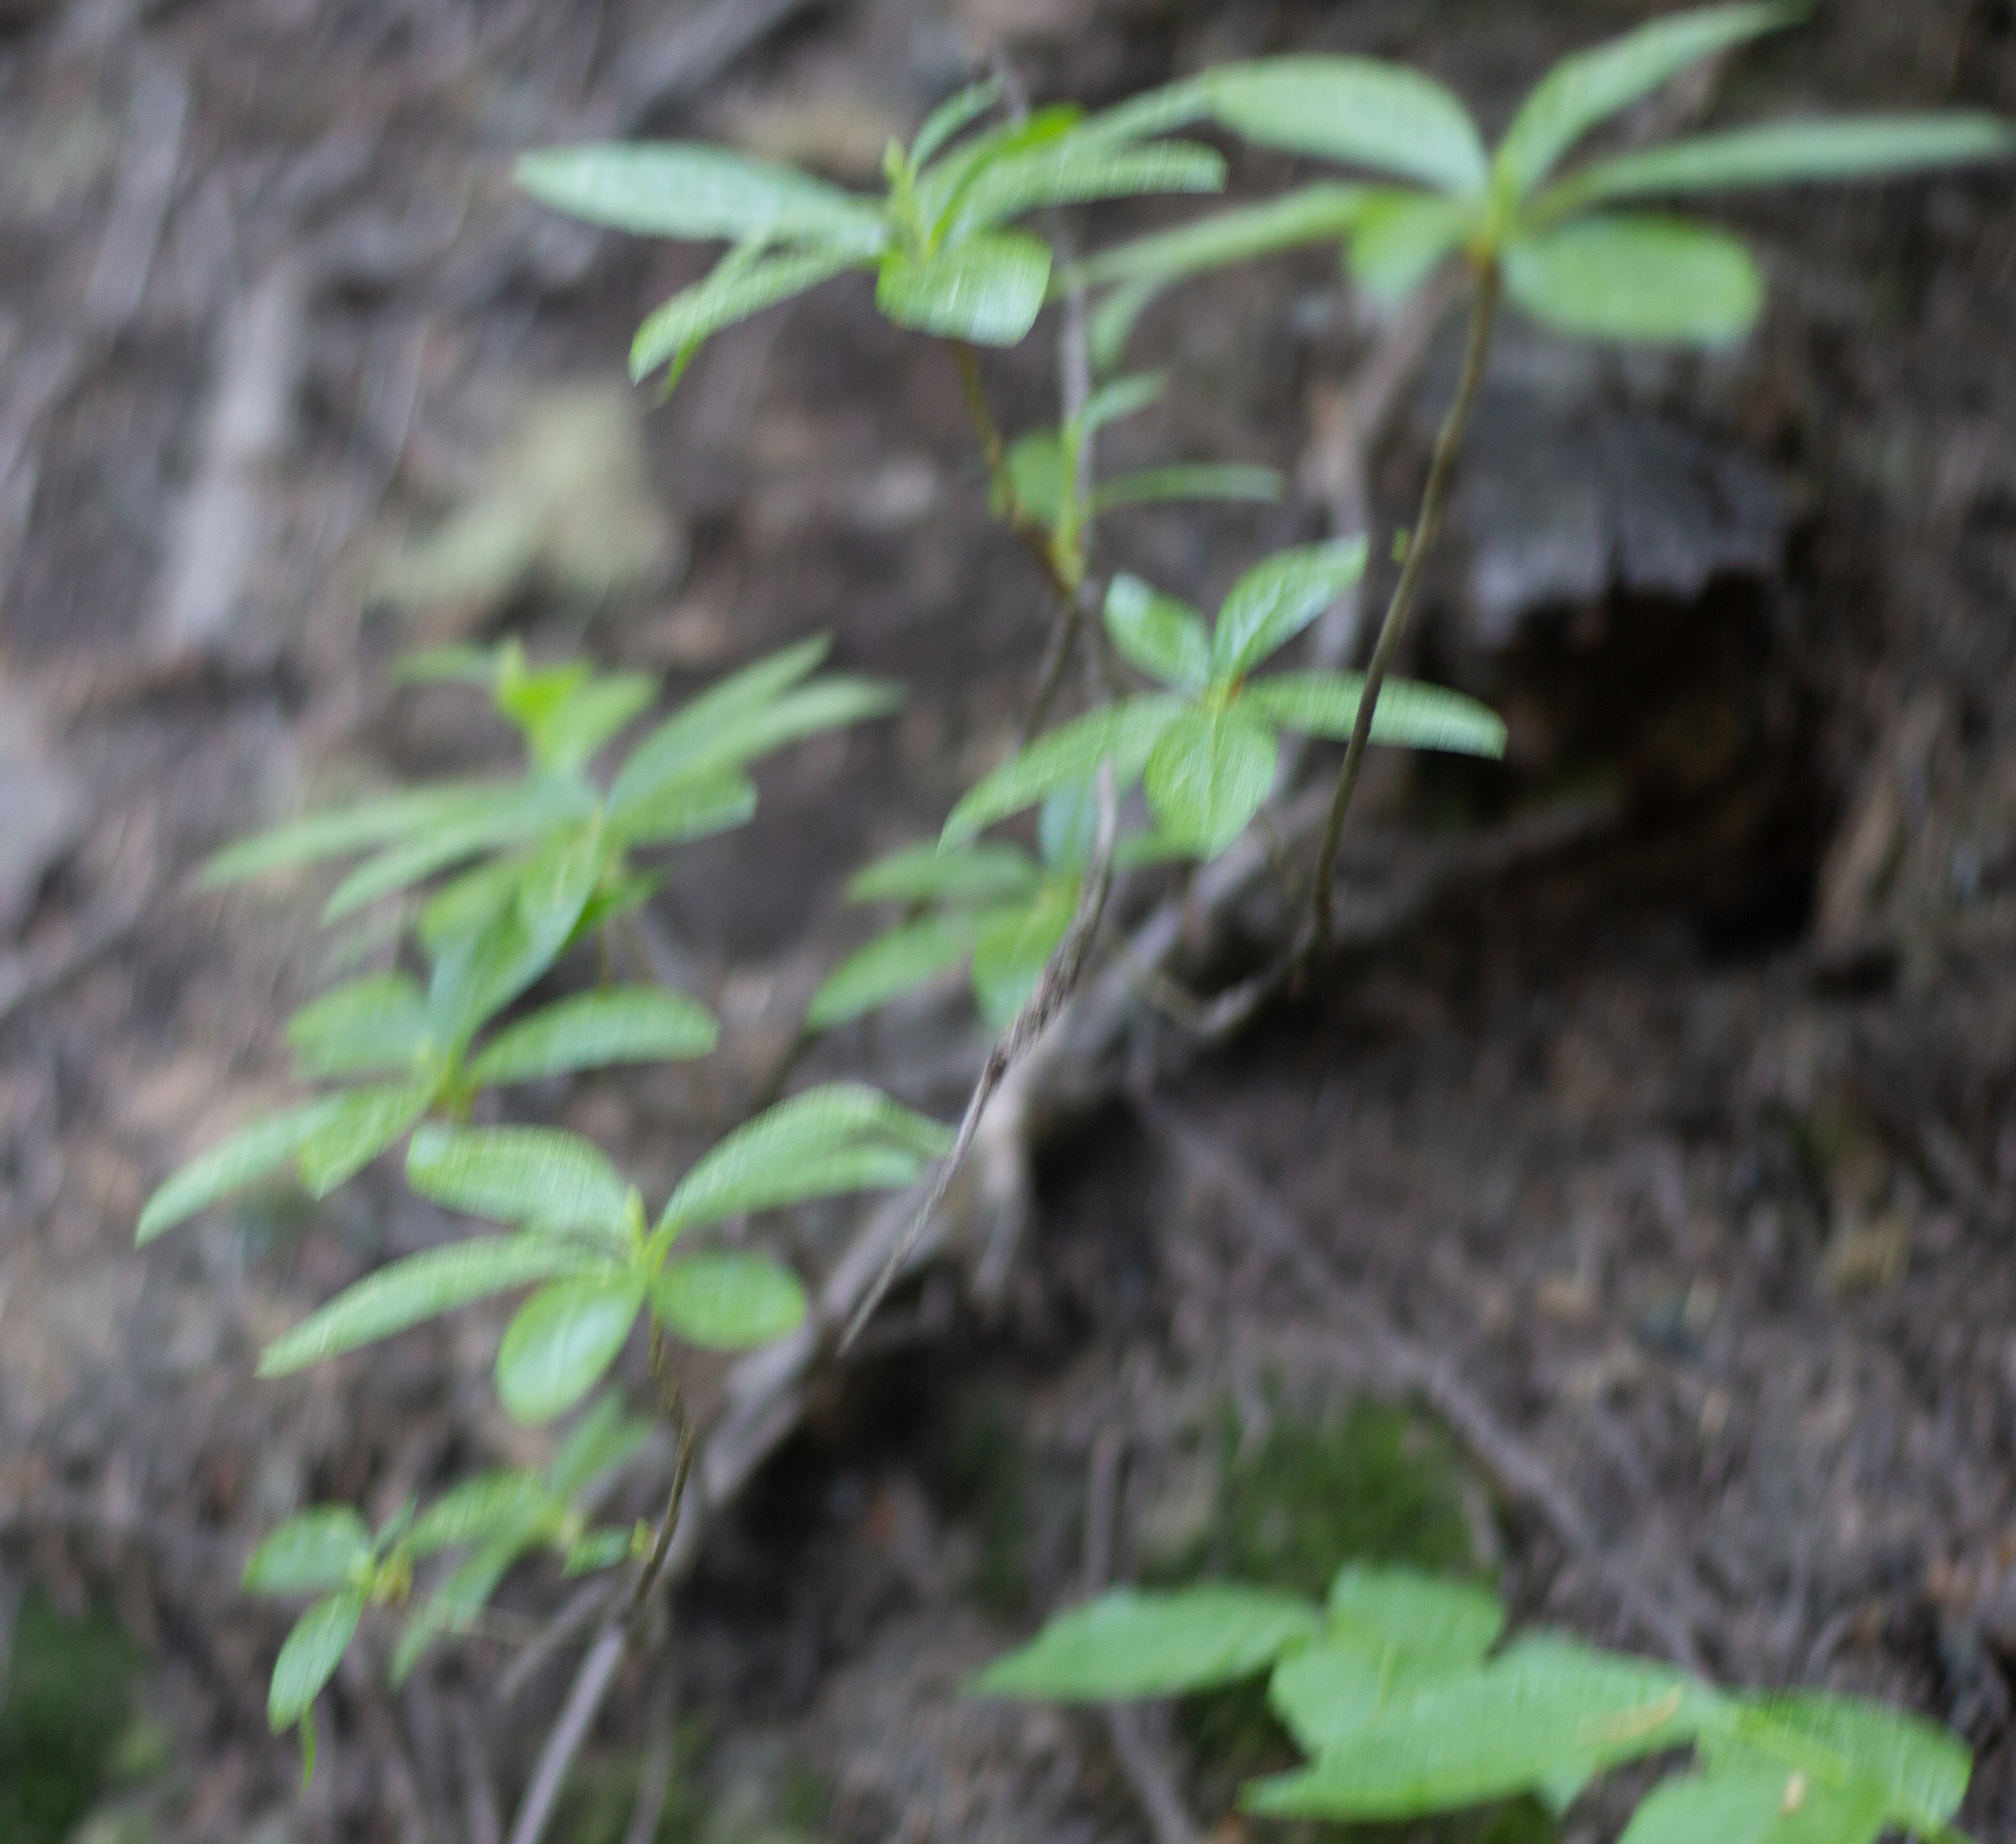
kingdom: Plantae
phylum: Tracheophyta
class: Magnoliopsida
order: Ericales
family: Ericaceae
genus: Rhododendron
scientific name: Rhododendron albiflorum
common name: White rhododendron
